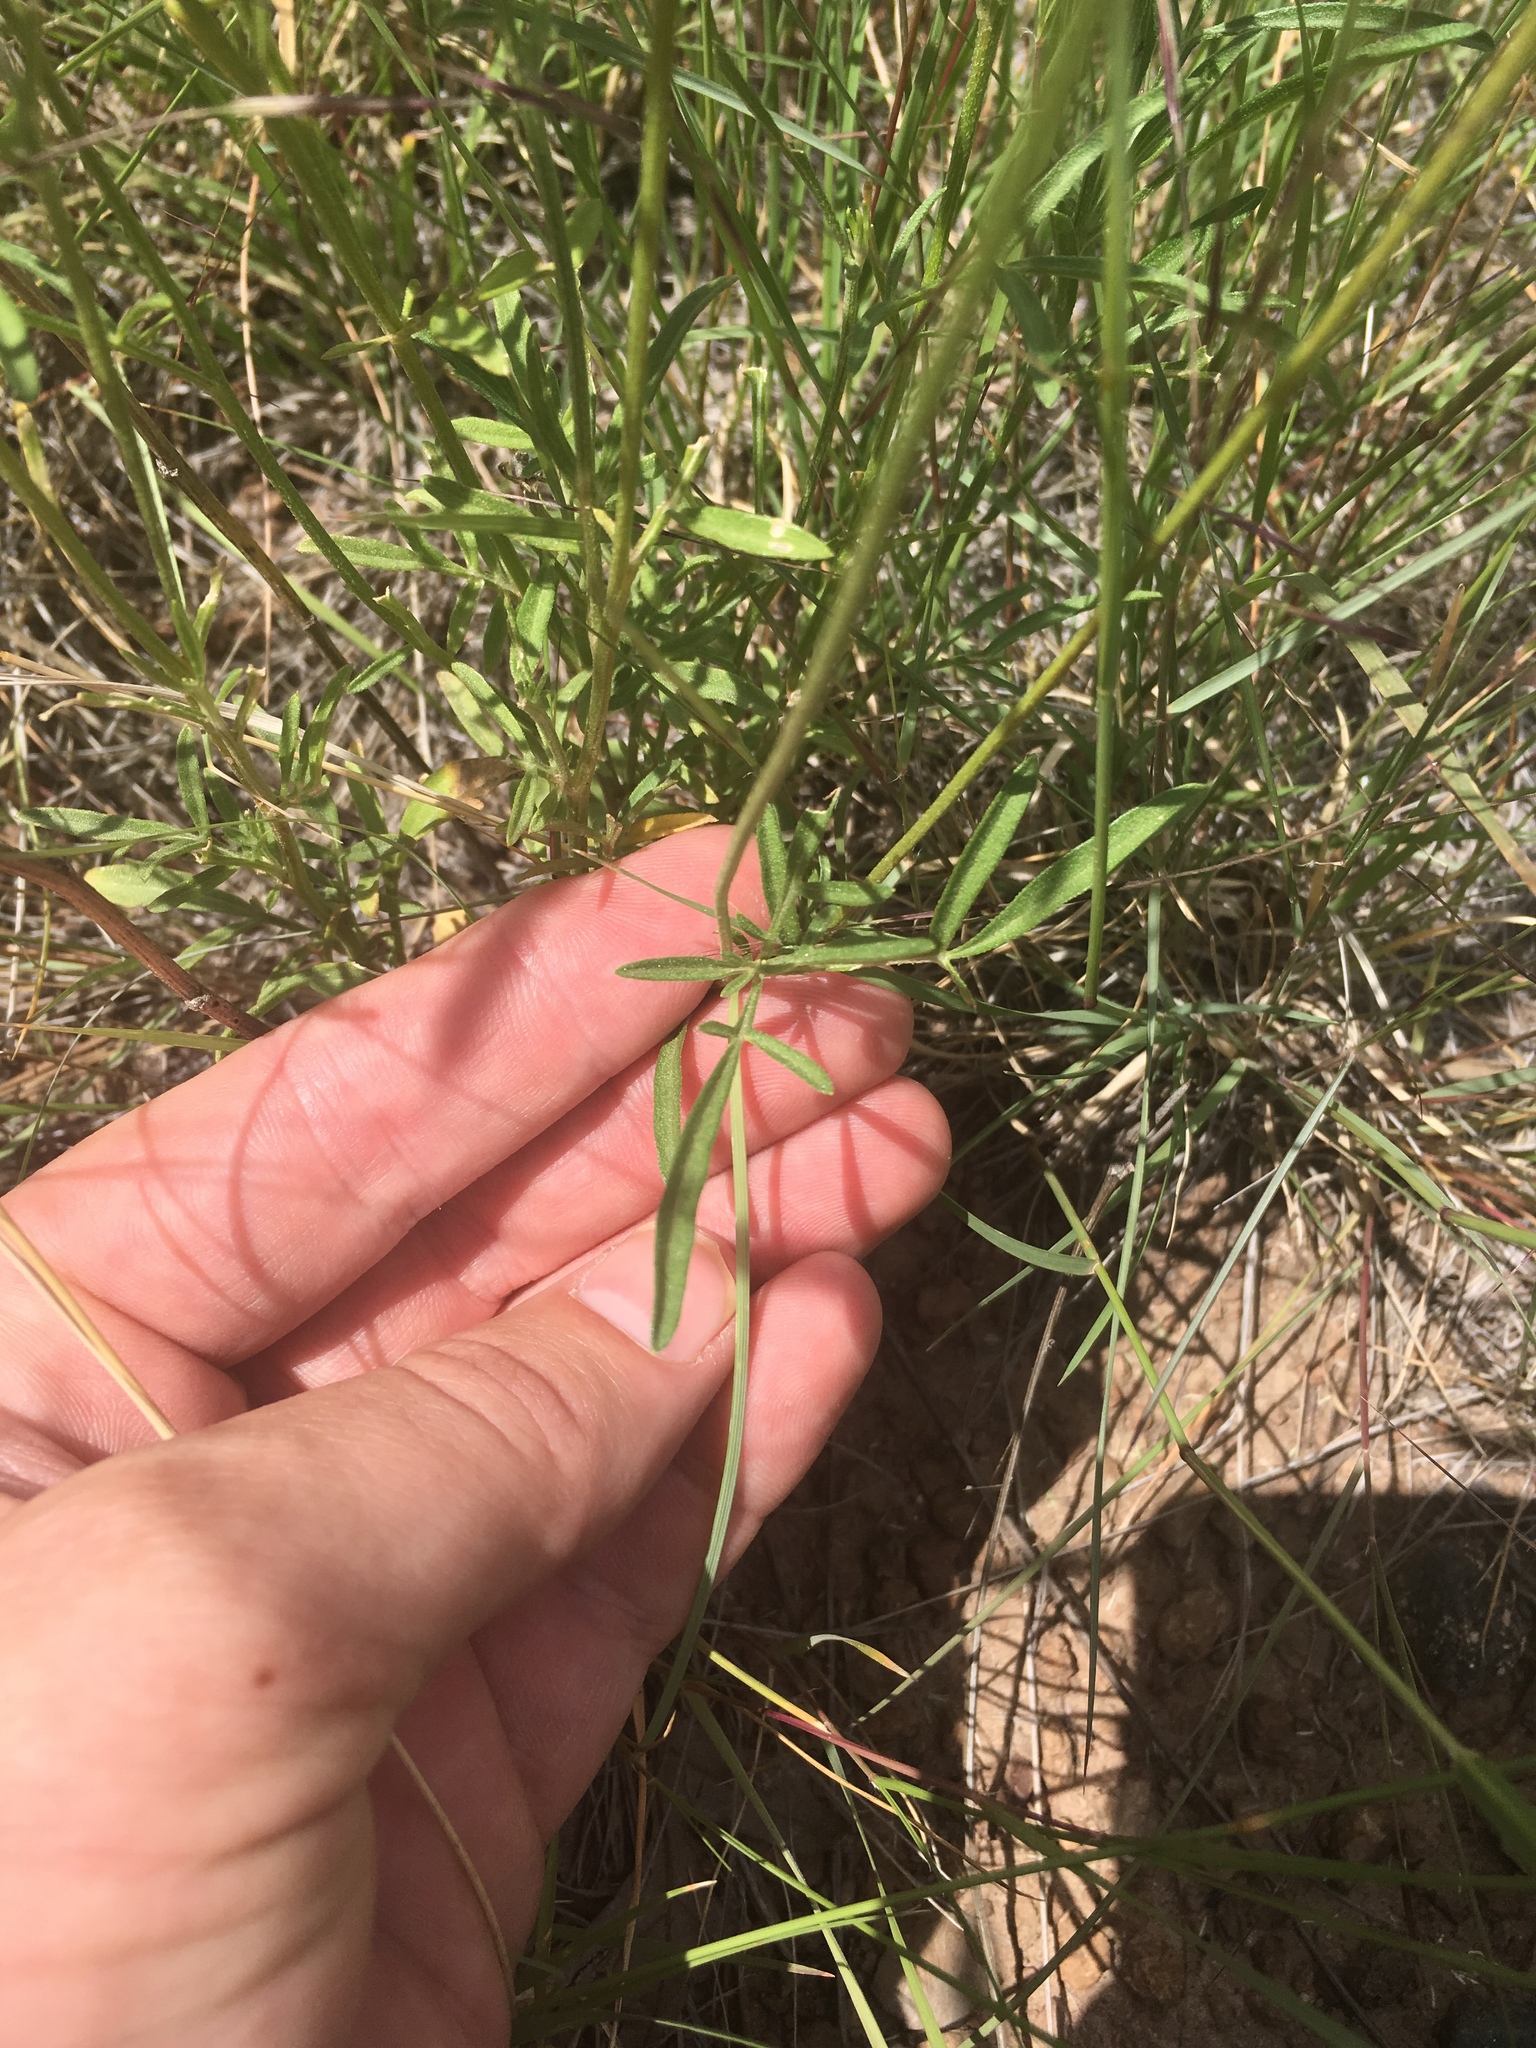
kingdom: Plantae
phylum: Tracheophyta
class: Magnoliopsida
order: Asterales
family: Asteraceae
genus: Ratibida
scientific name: Ratibida columnifera
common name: Prairie coneflower
